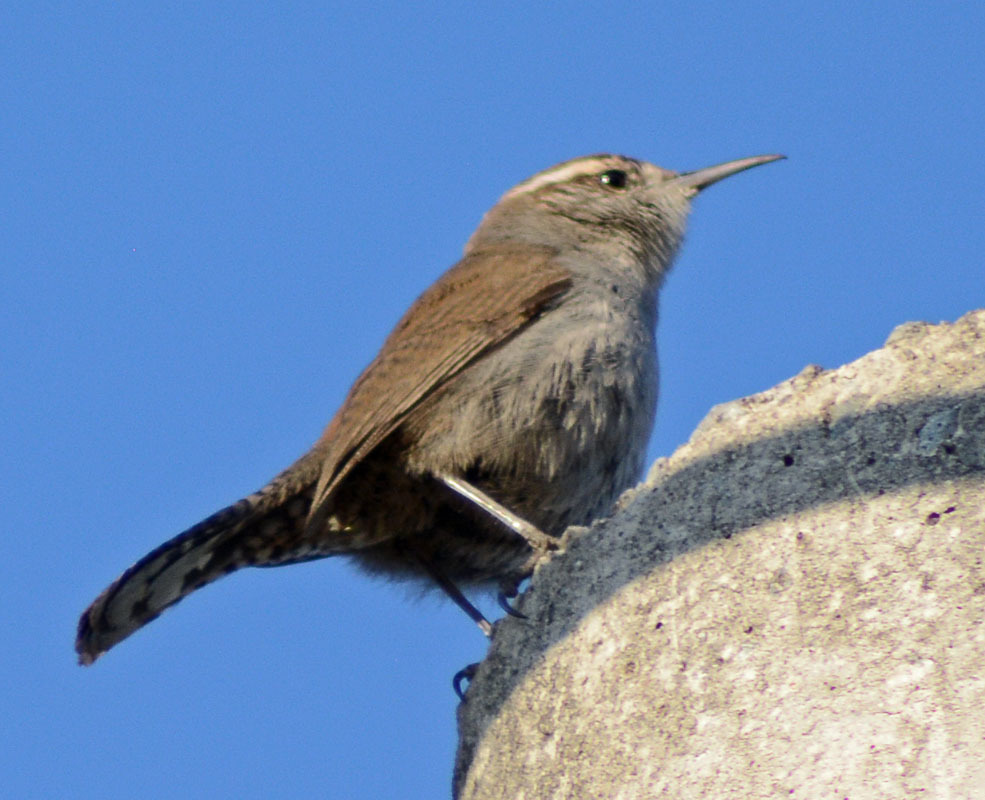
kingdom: Animalia
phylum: Chordata
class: Aves
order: Passeriformes
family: Troglodytidae
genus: Thryomanes
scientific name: Thryomanes bewickii
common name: Bewick's wren
